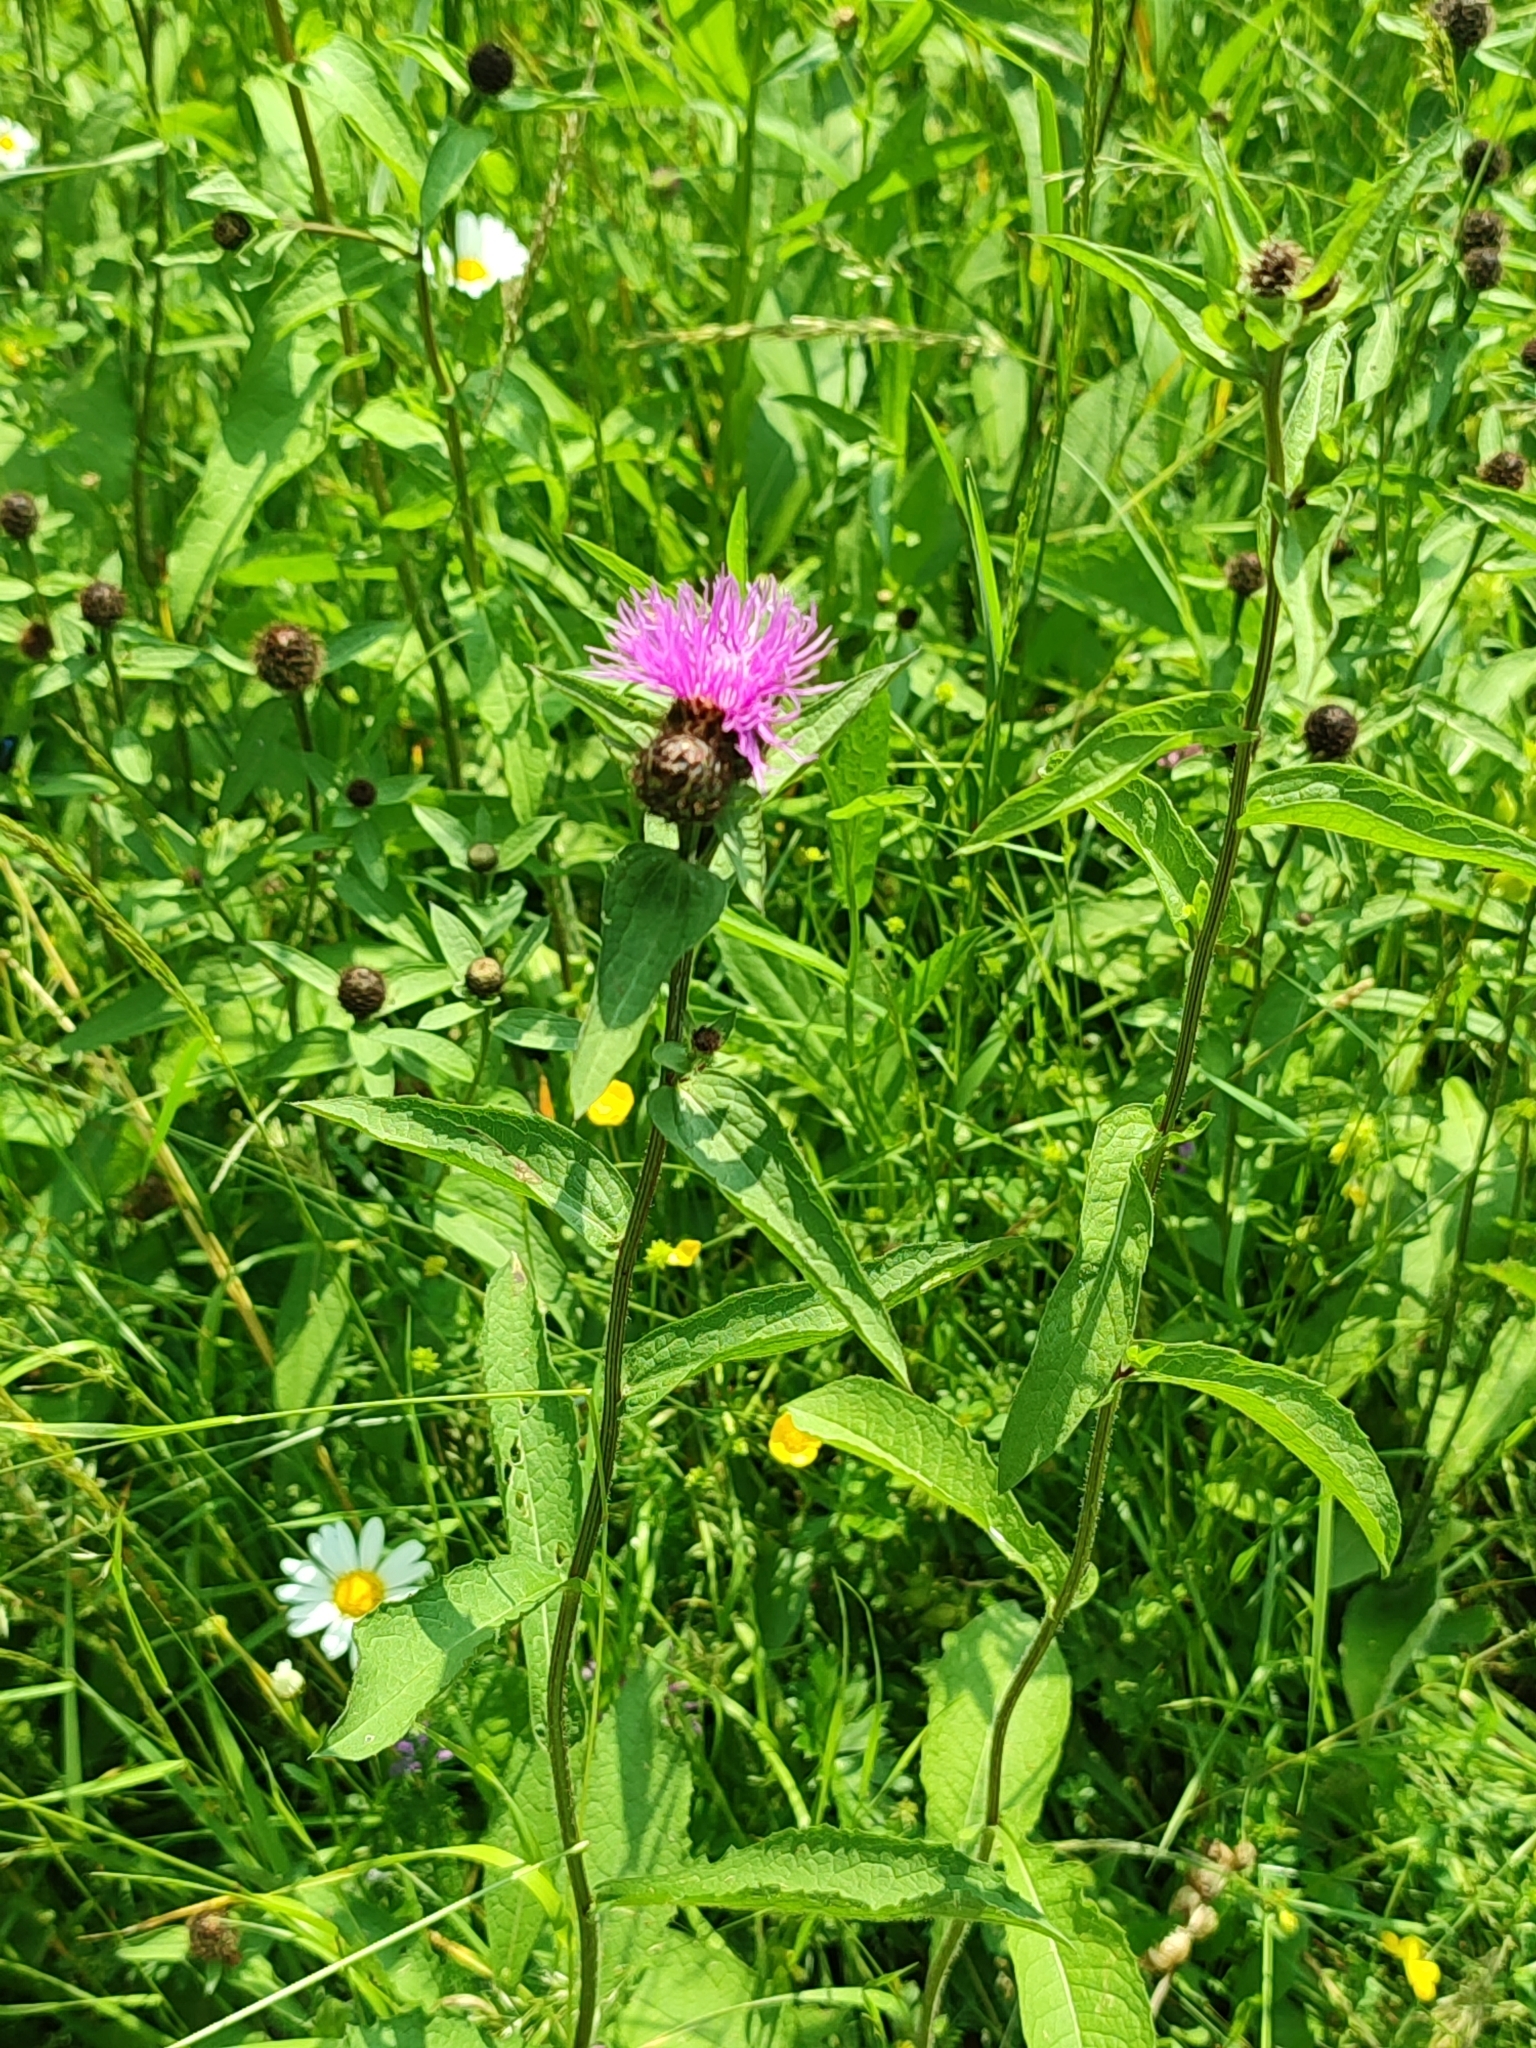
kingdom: Plantae
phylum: Tracheophyta
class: Magnoliopsida
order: Asterales
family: Asteraceae
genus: Centaurea
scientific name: Centaurea phrygia
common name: Wig knapweed
